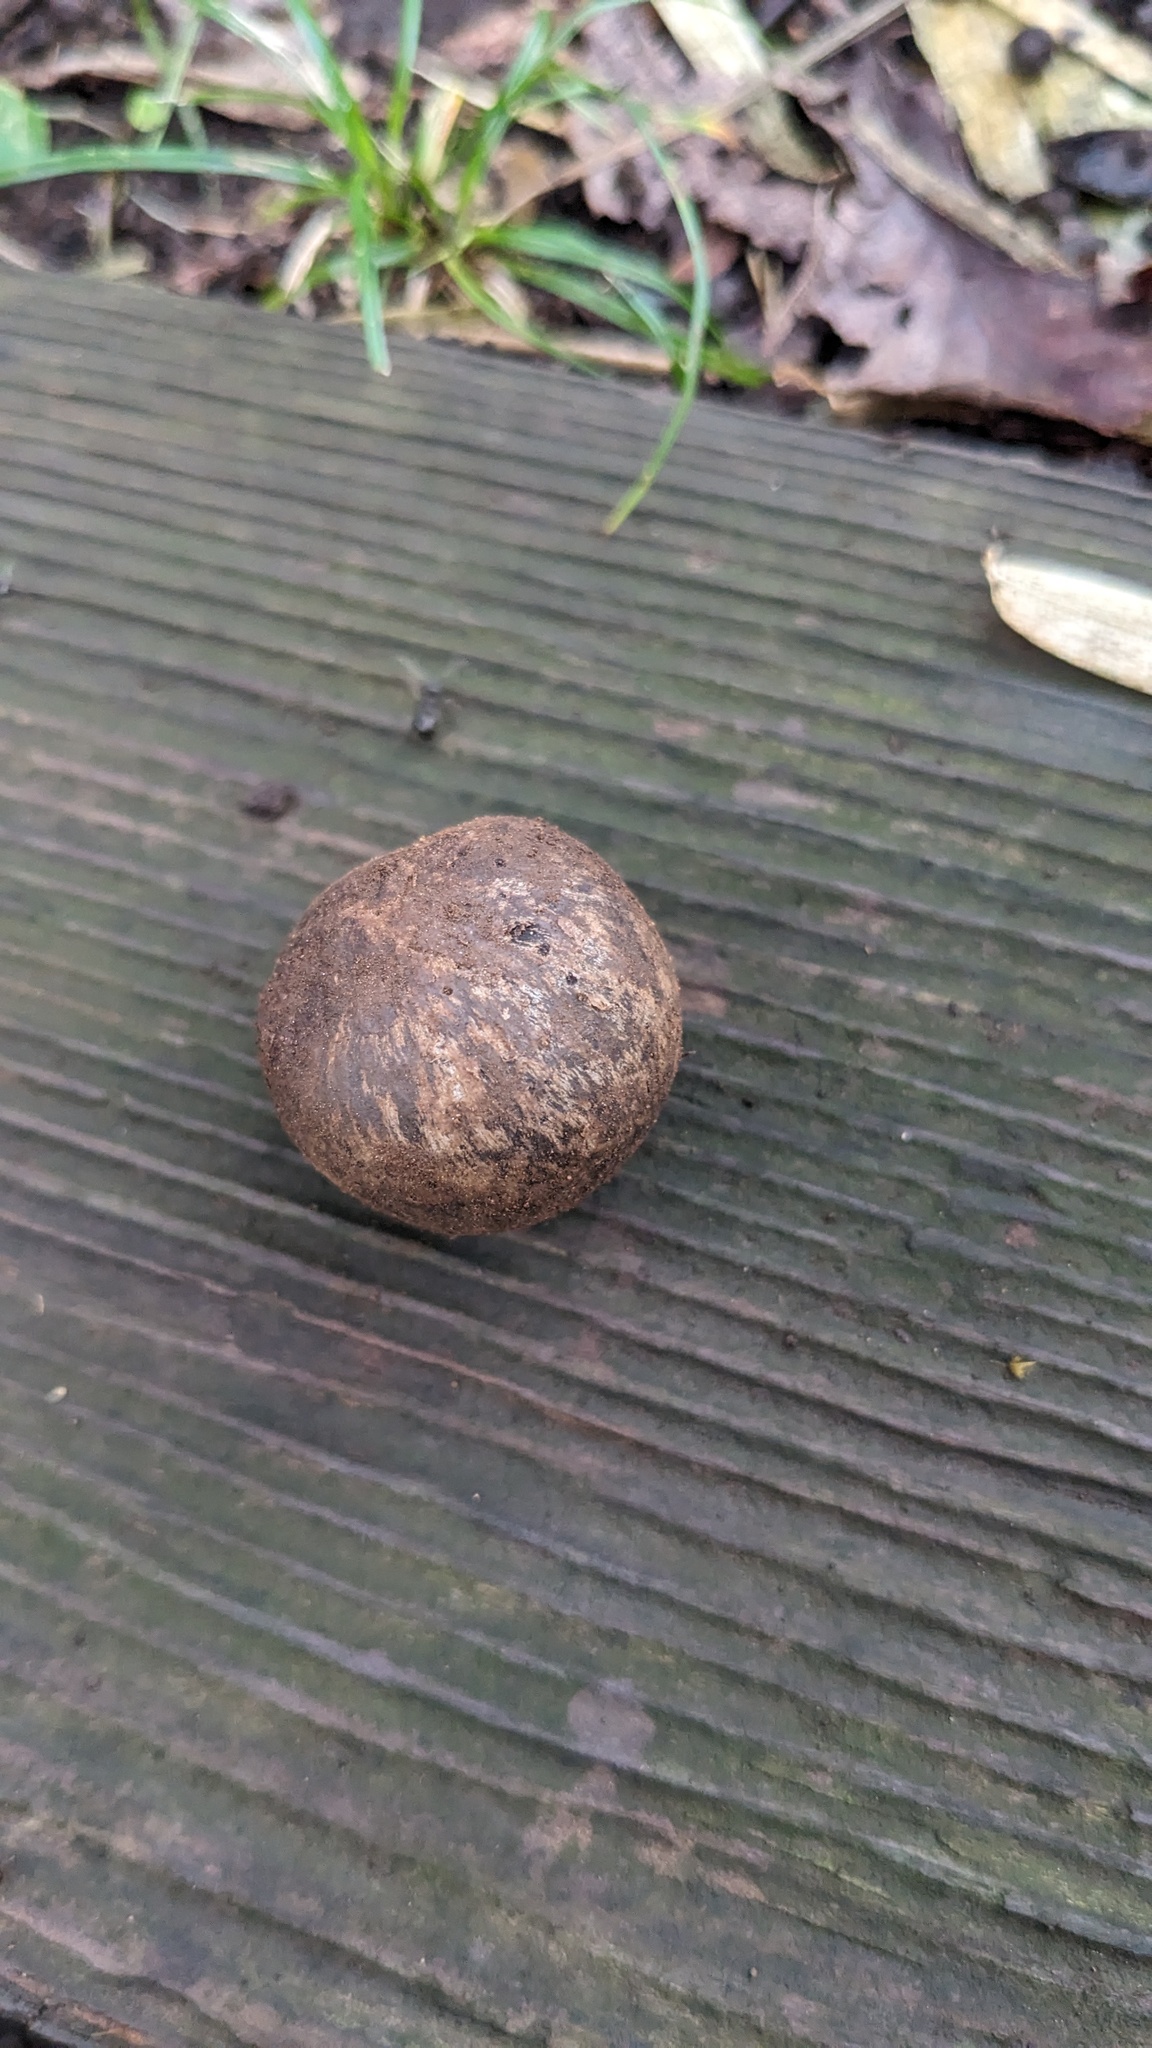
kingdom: Fungi
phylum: Basidiomycota
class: Agaricomycetes
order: Boletales
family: Diplocystidiaceae
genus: Astraeus
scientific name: Astraeus hygrometricus
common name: Barometer earthstar
